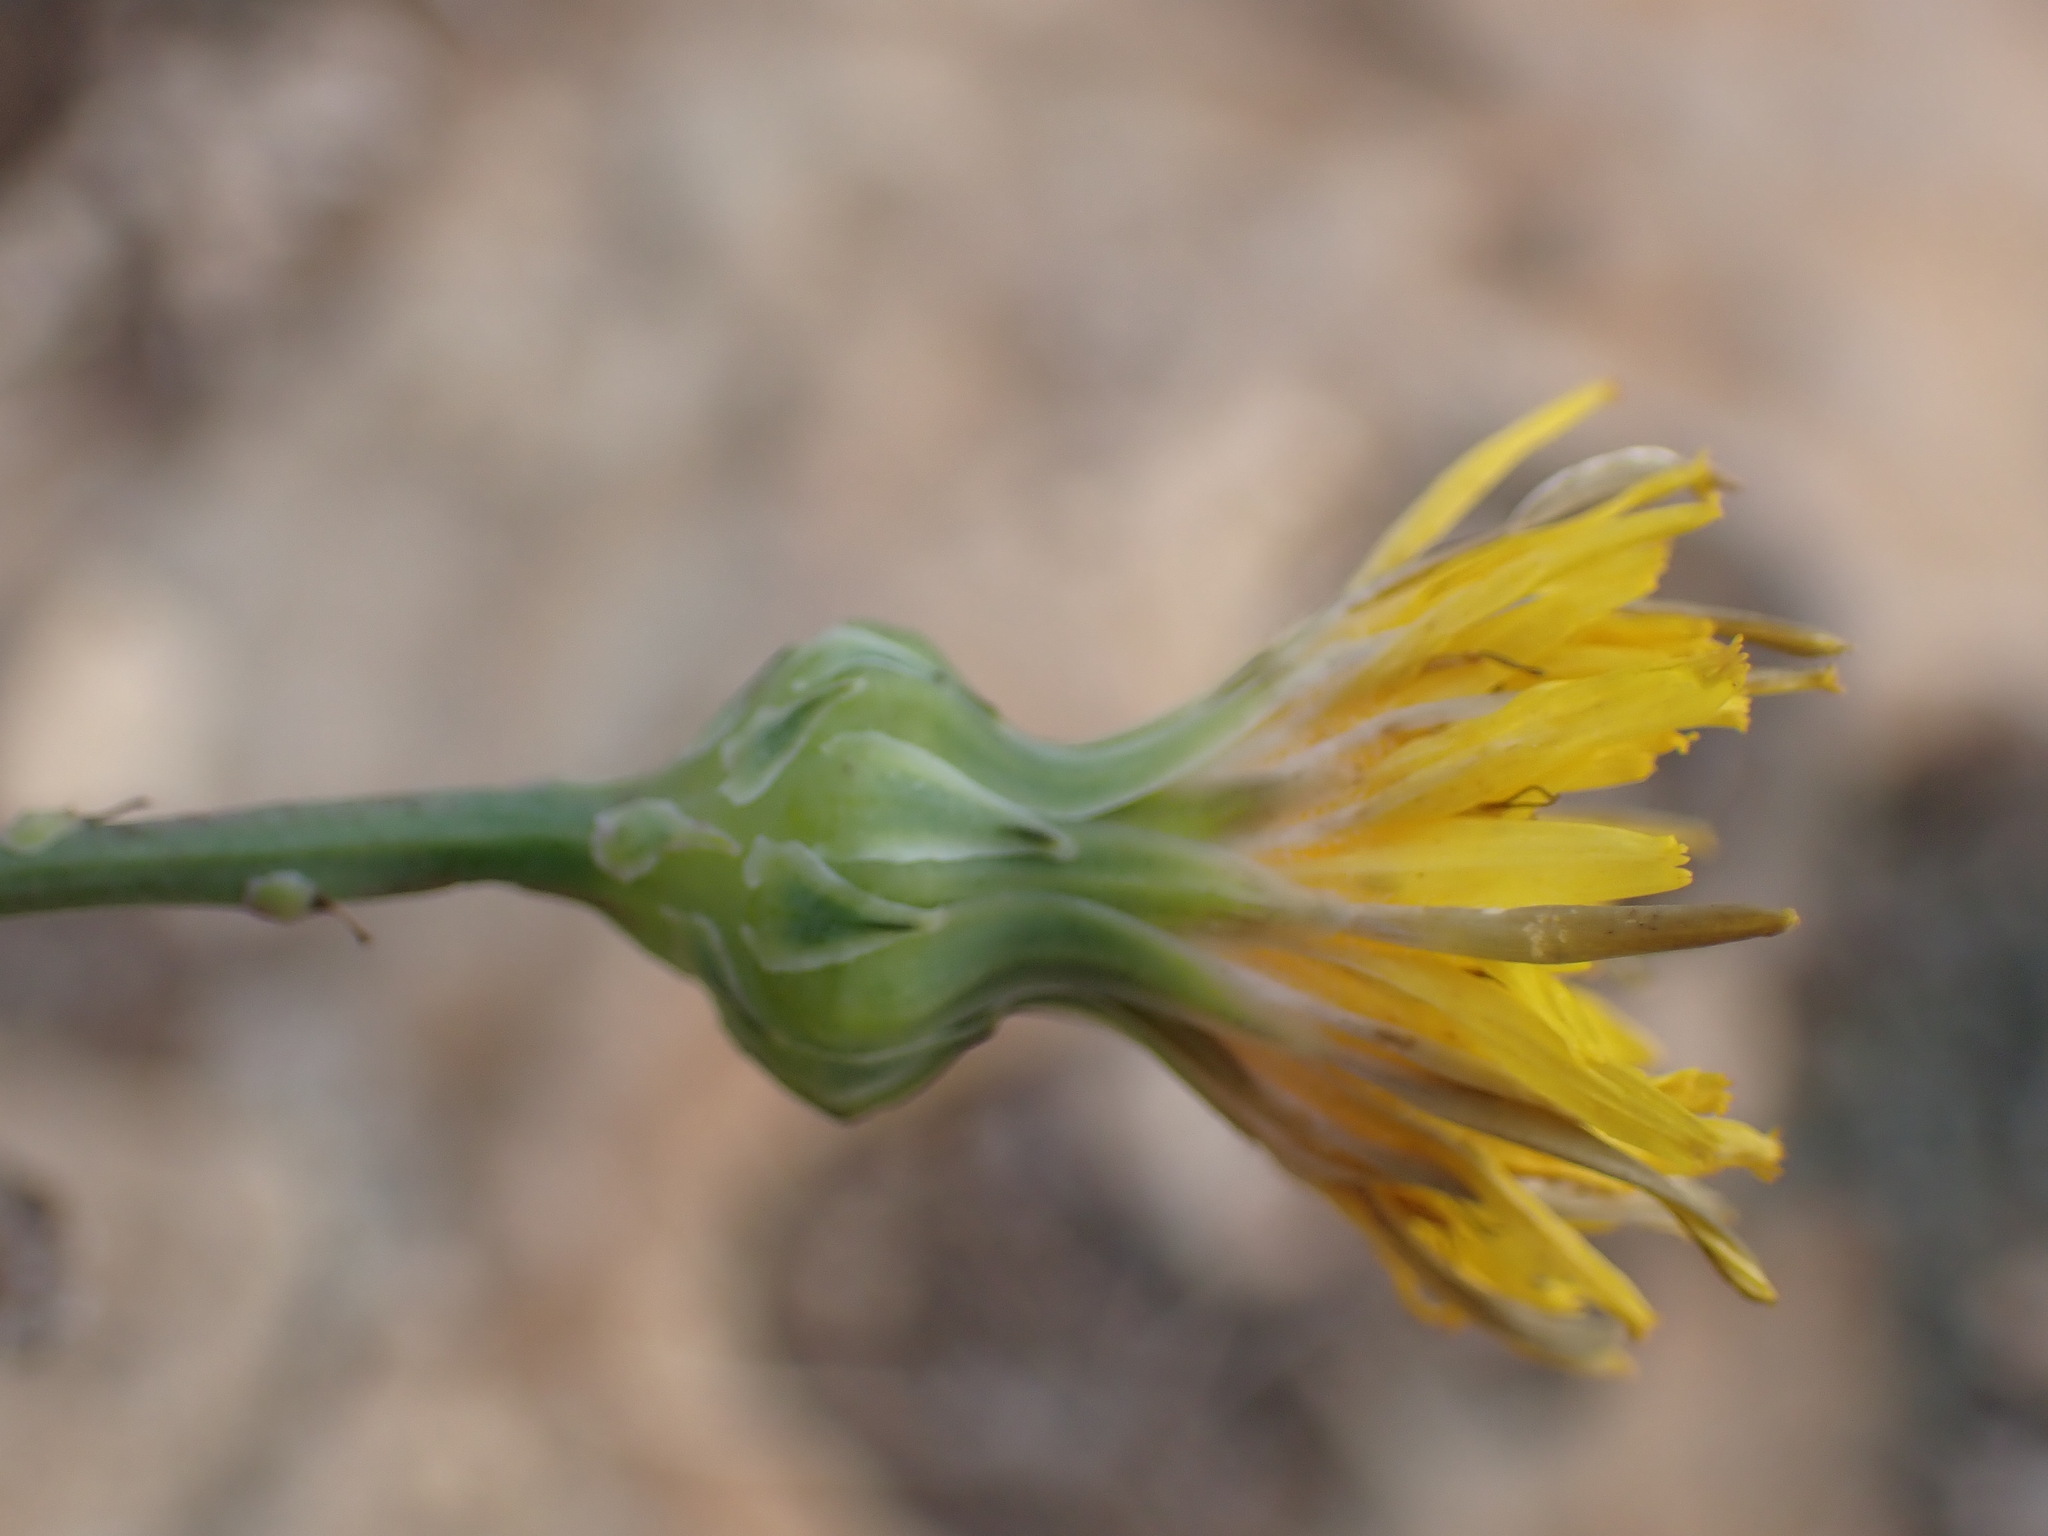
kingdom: Plantae
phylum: Tracheophyta
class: Magnoliopsida
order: Asterales
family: Asteraceae
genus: Reichardia
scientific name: Reichardia picroides
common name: Common brighteyes
